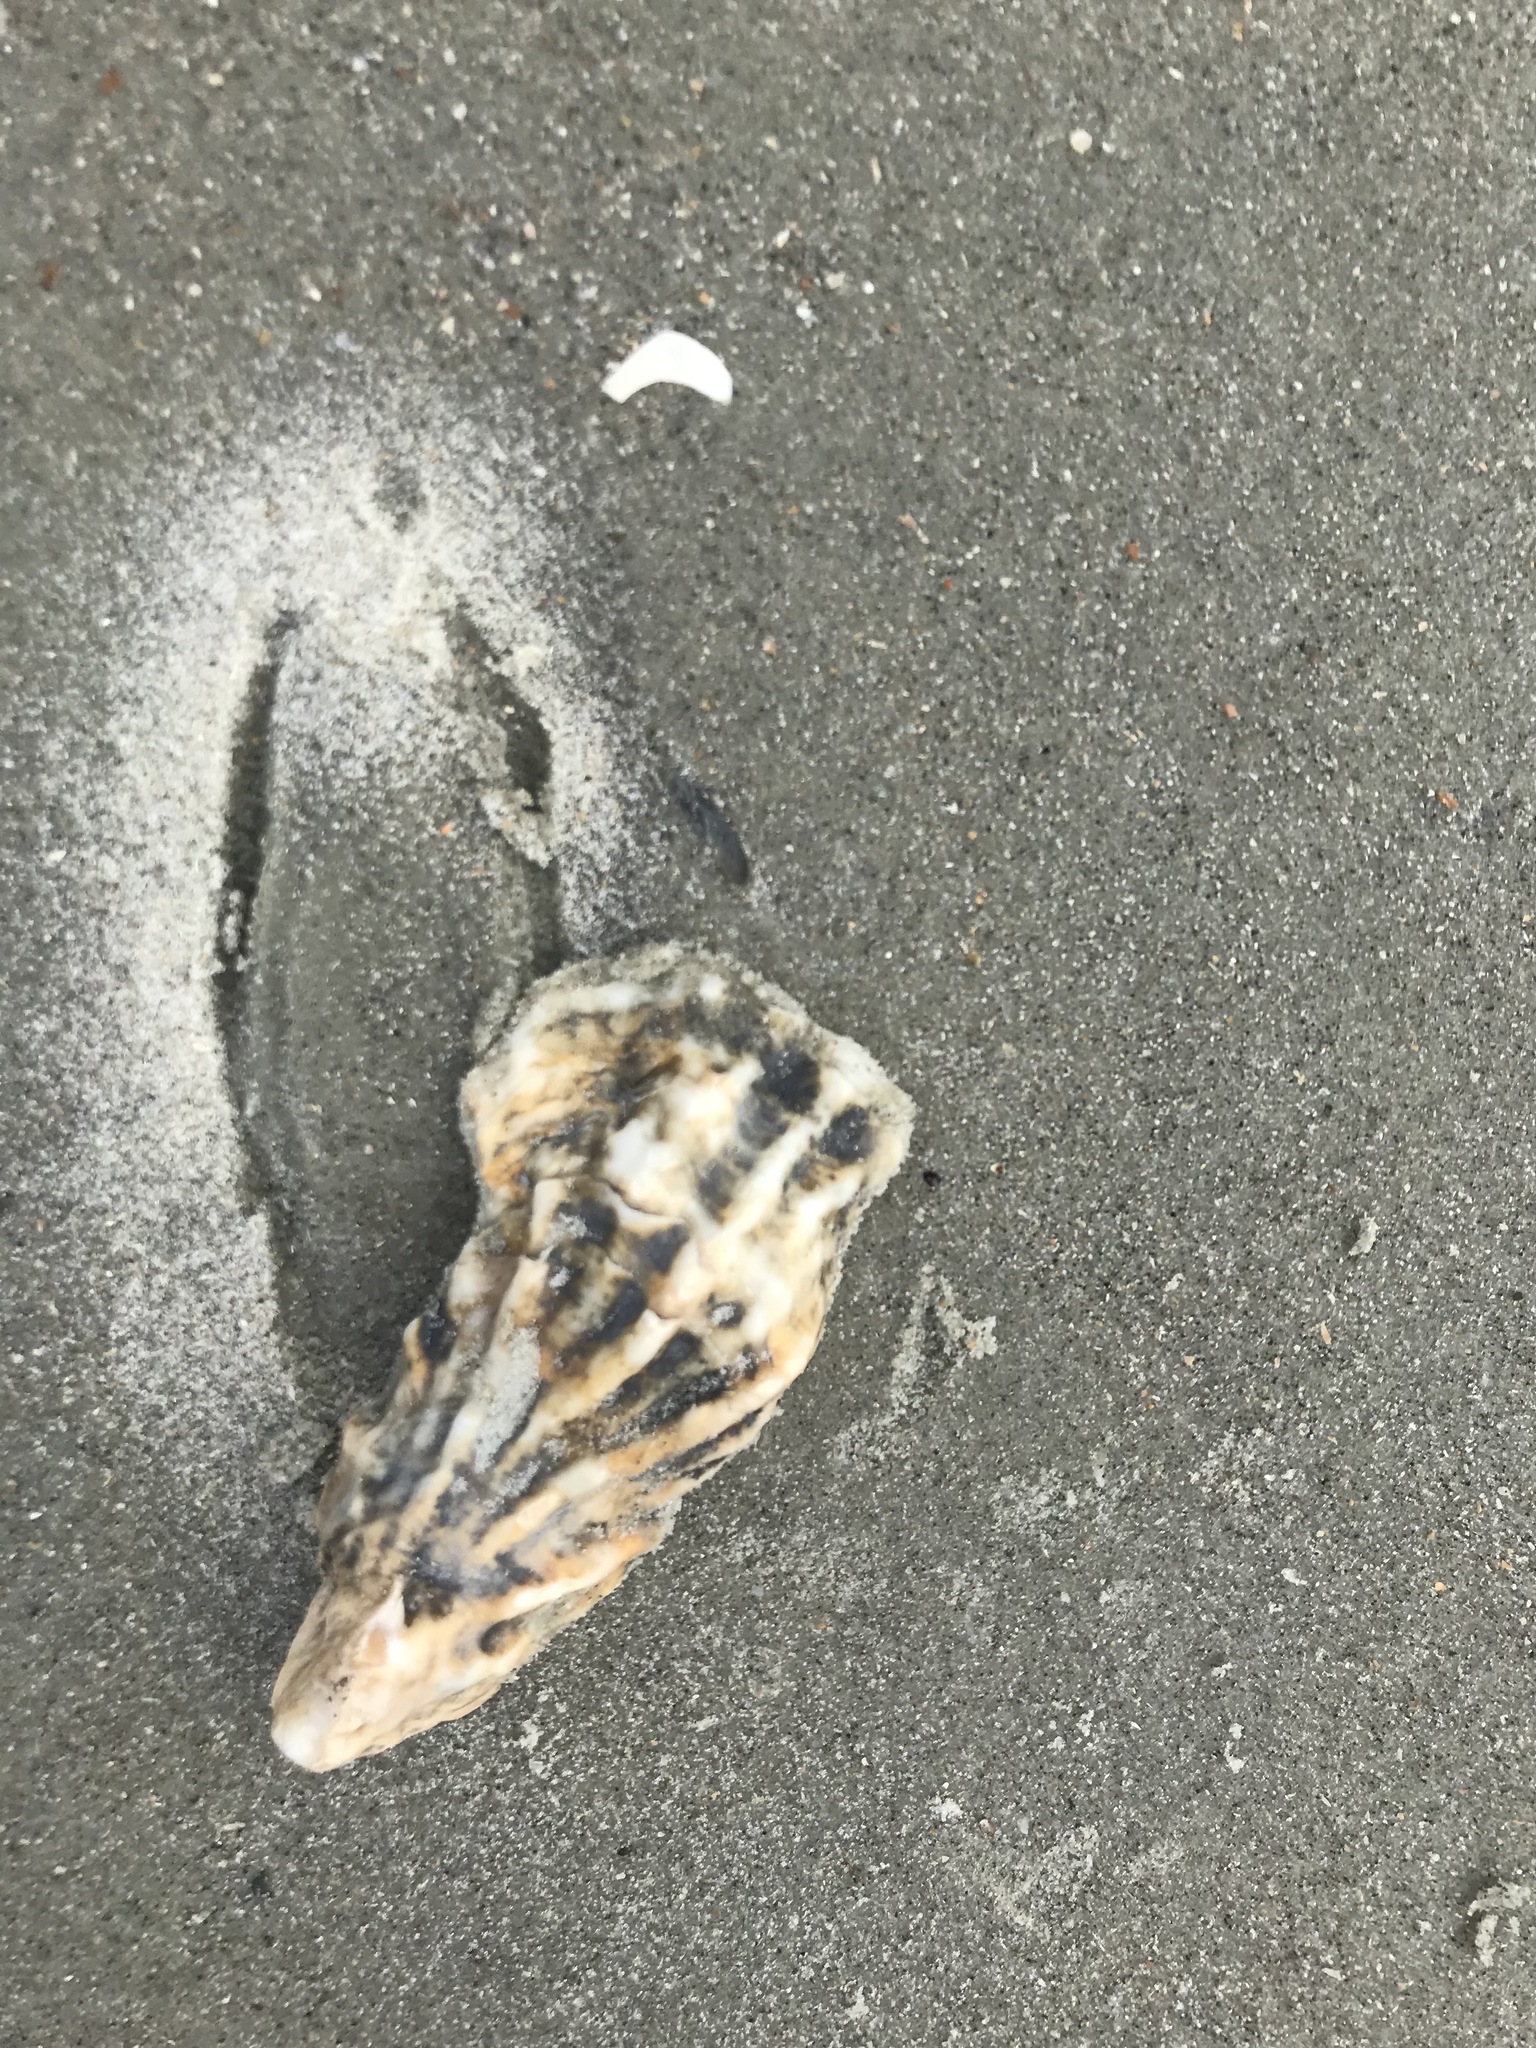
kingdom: Animalia
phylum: Mollusca
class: Bivalvia
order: Ostreida
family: Ostreidae
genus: Crassostrea
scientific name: Crassostrea virginica
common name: American oyster
